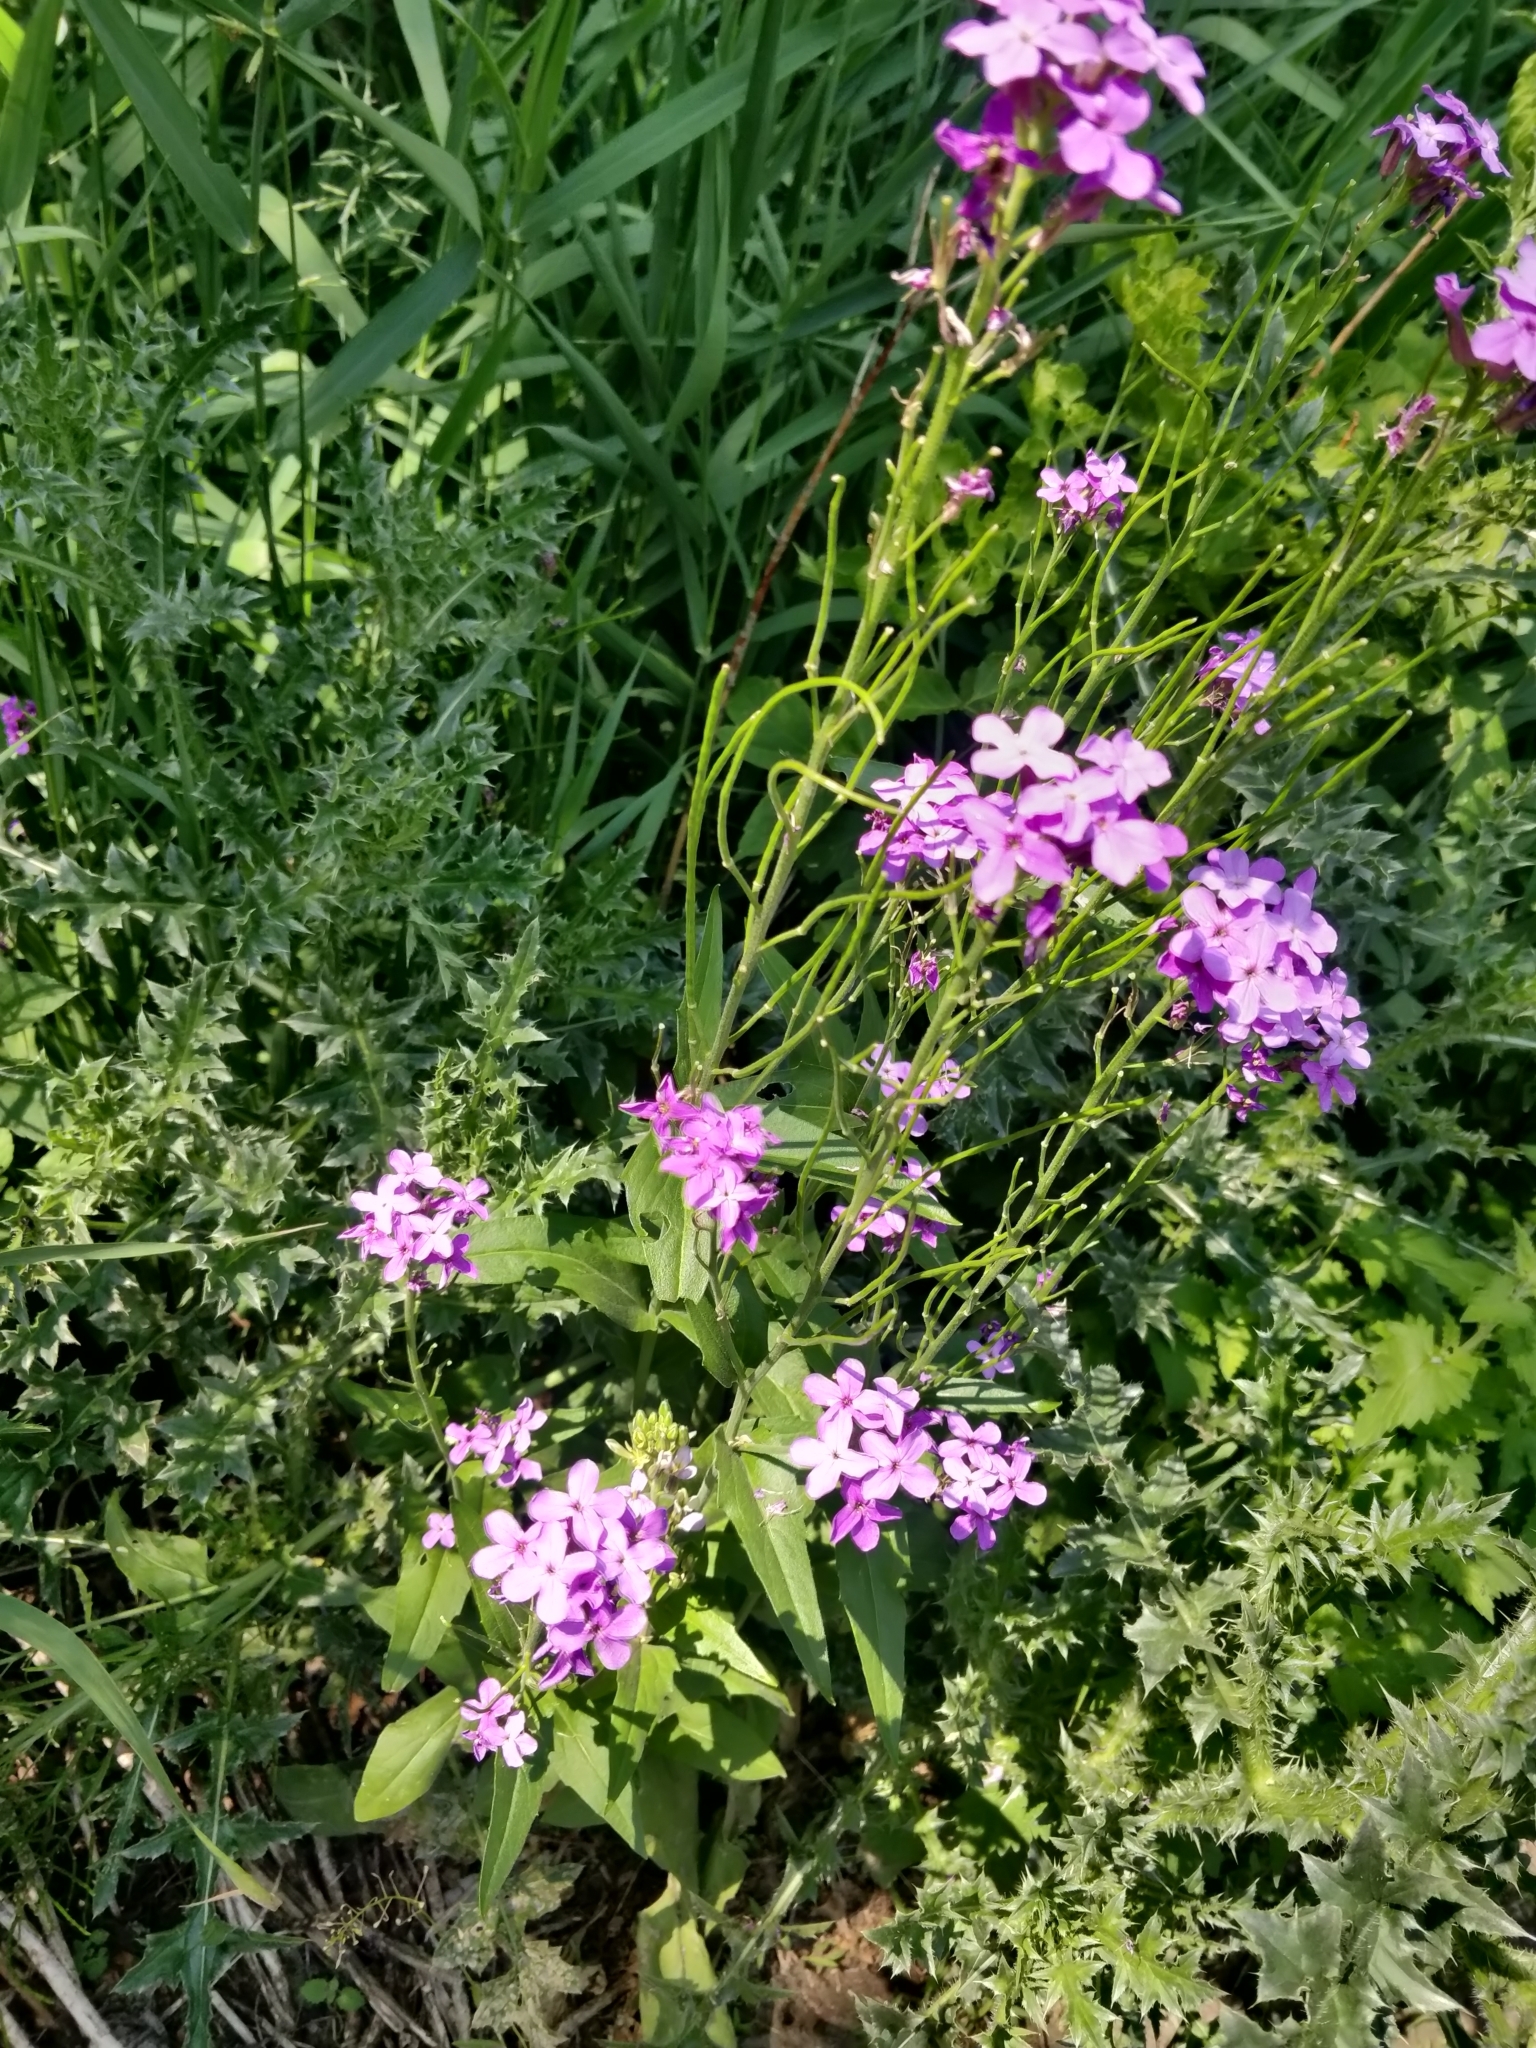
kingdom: Plantae
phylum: Tracheophyta
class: Magnoliopsida
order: Brassicales
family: Brassicaceae
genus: Hesperis
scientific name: Hesperis matronalis
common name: Dame's-violet
